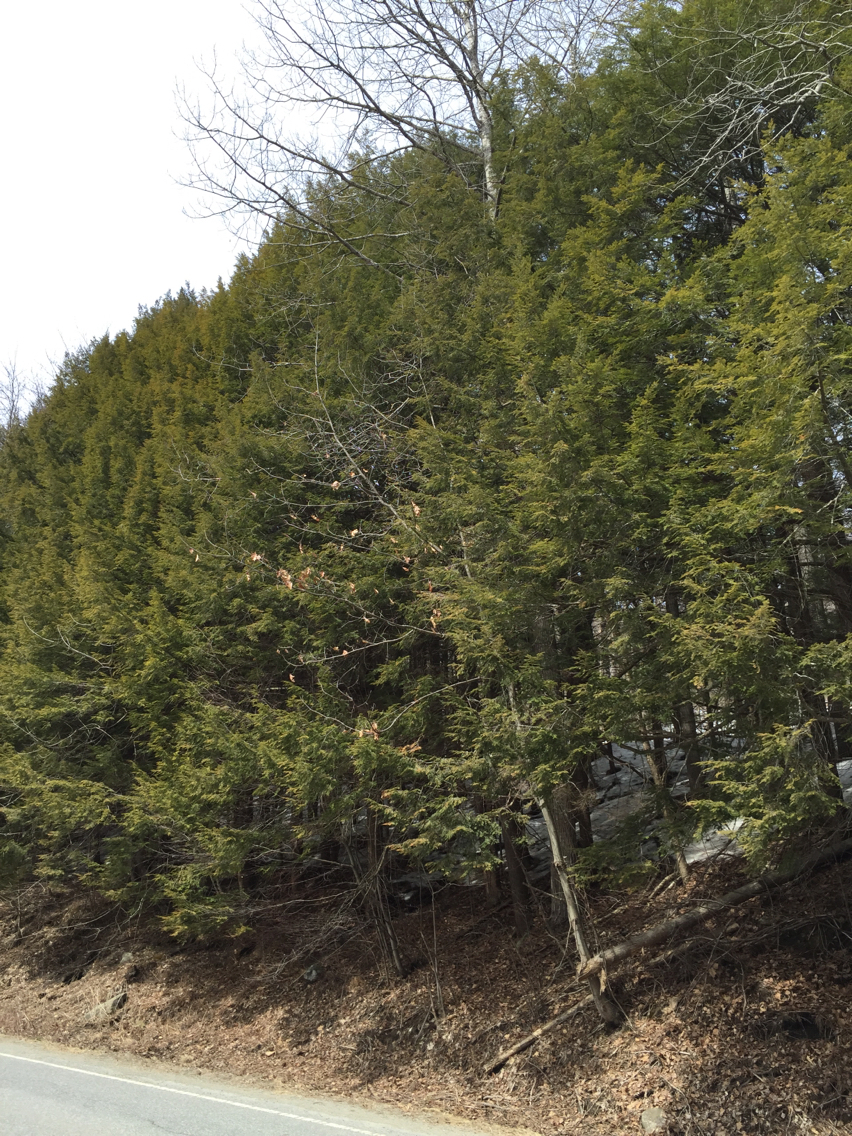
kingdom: Plantae
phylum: Tracheophyta
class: Pinopsida
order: Pinales
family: Pinaceae
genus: Tsuga
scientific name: Tsuga canadensis
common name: Eastern hemlock
